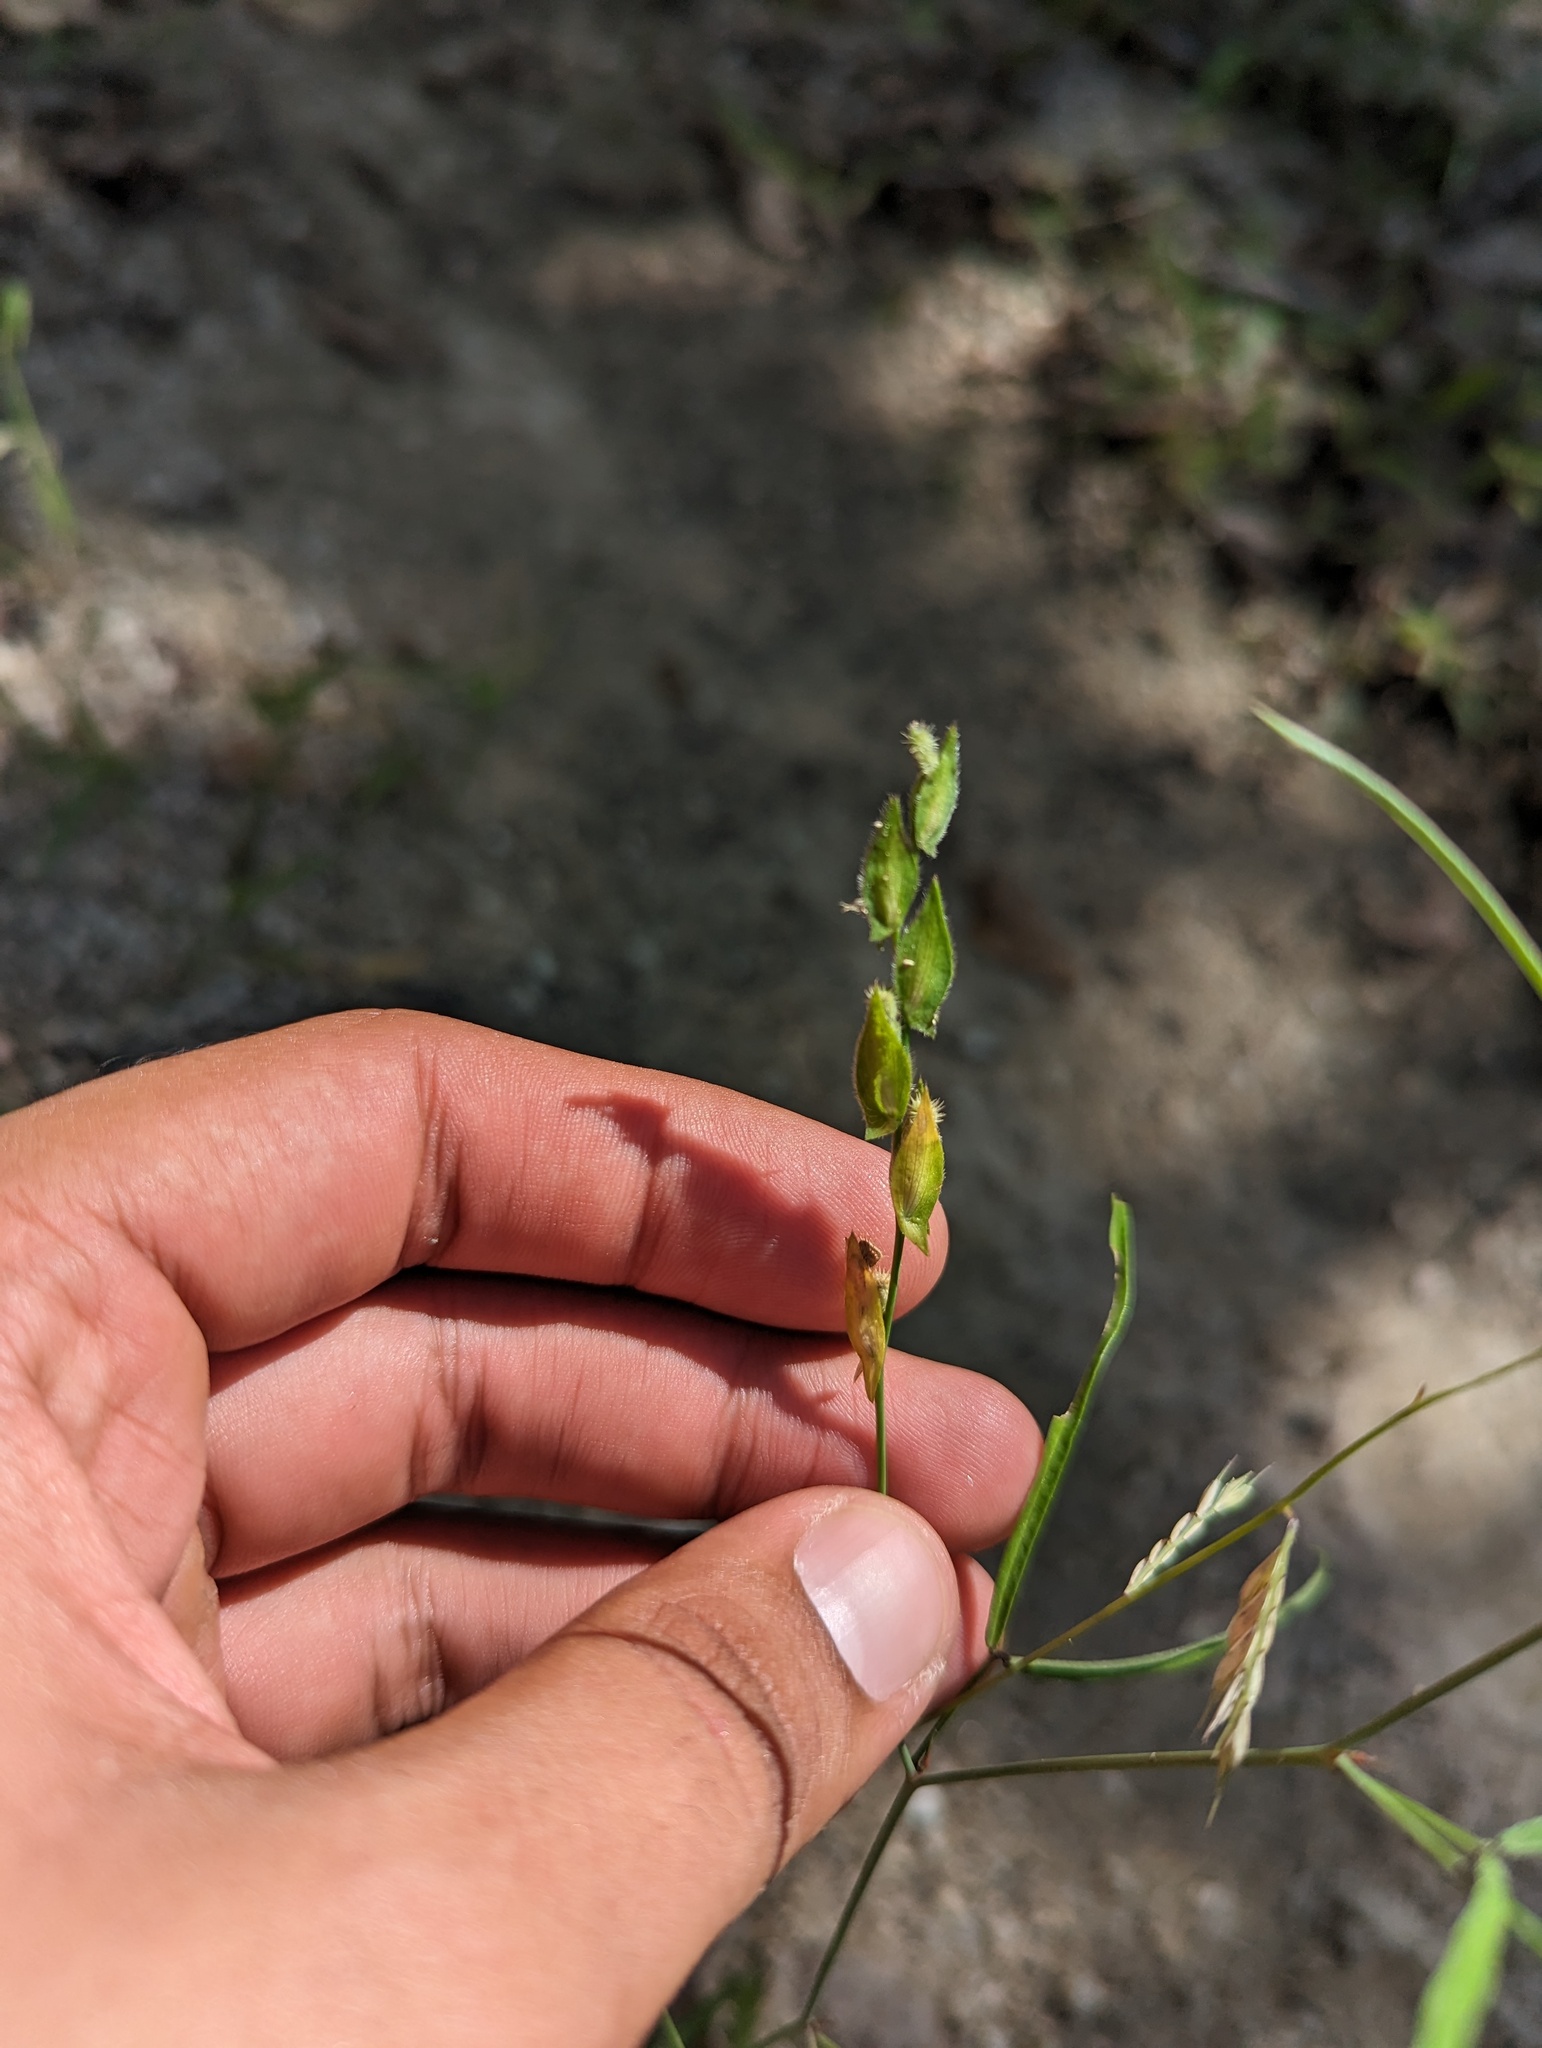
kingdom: Plantae
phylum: Tracheophyta
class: Magnoliopsida
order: Fabales
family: Fabaceae
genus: Zornia
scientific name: Zornia reticulata
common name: Reticulate viperina
